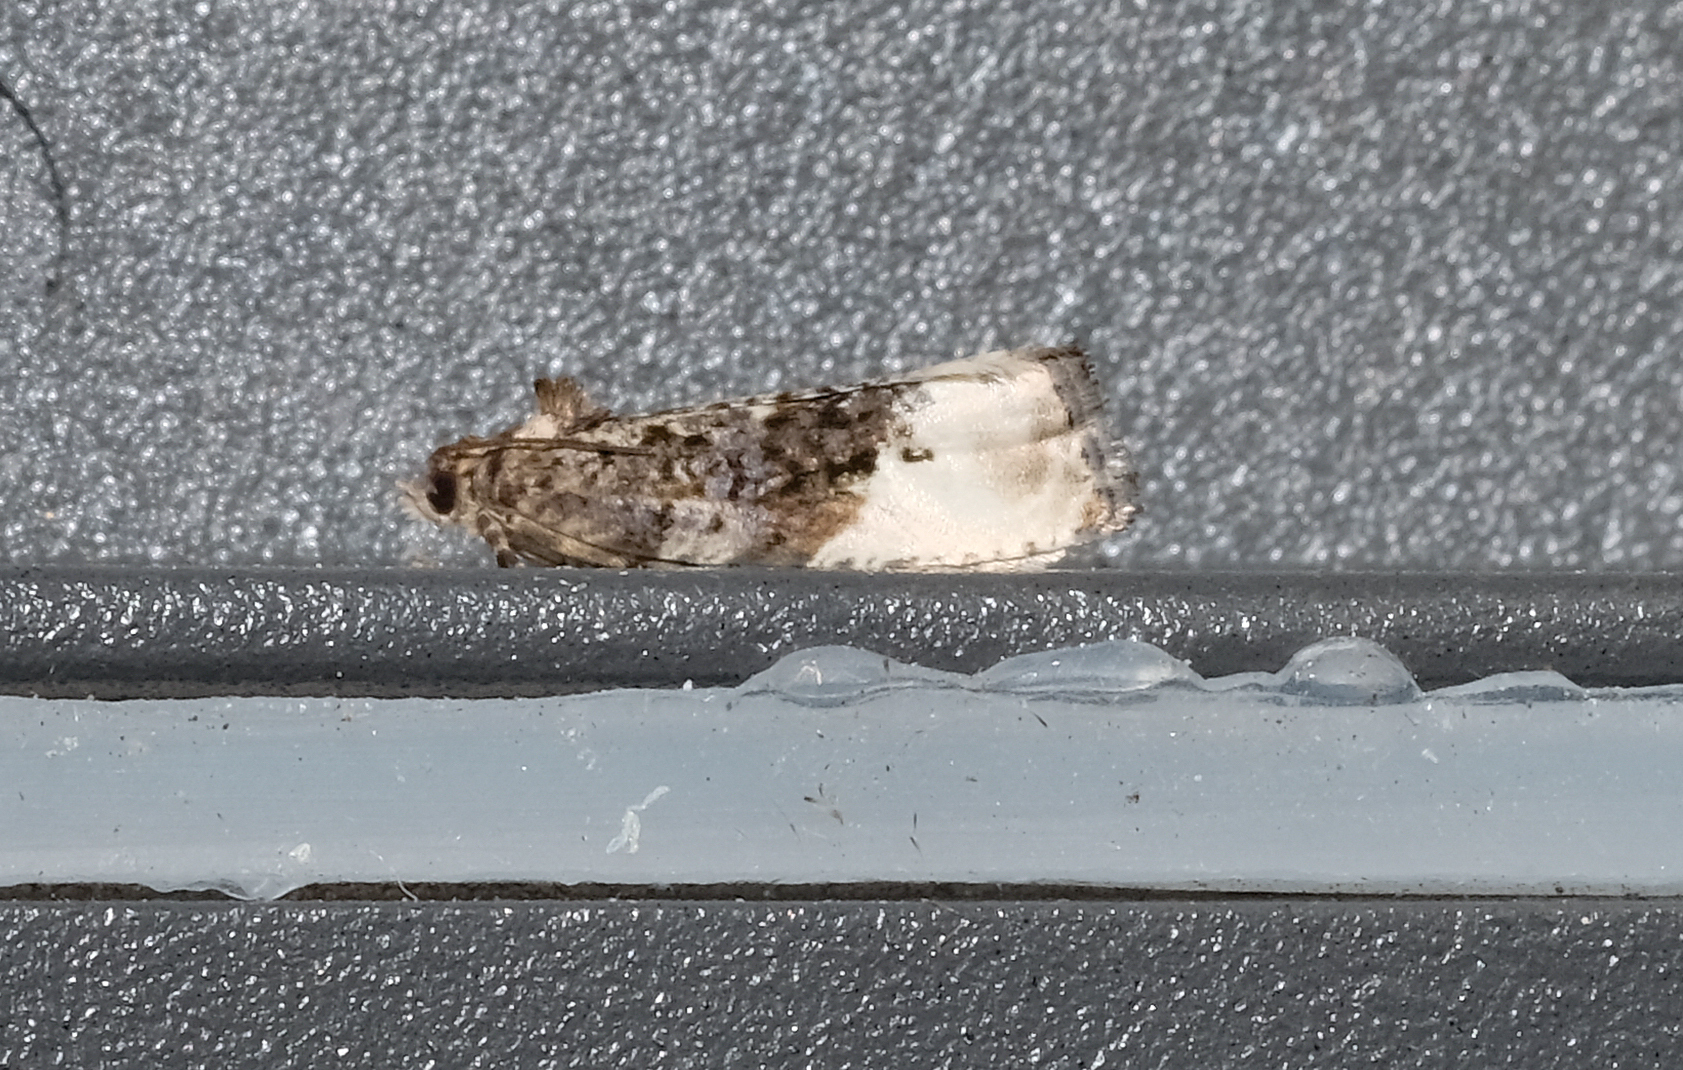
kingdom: Animalia
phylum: Arthropoda
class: Insecta
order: Lepidoptera
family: Tortricidae
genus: Hedya
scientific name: Hedya nubiferana
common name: Marbled orchard tortrix
